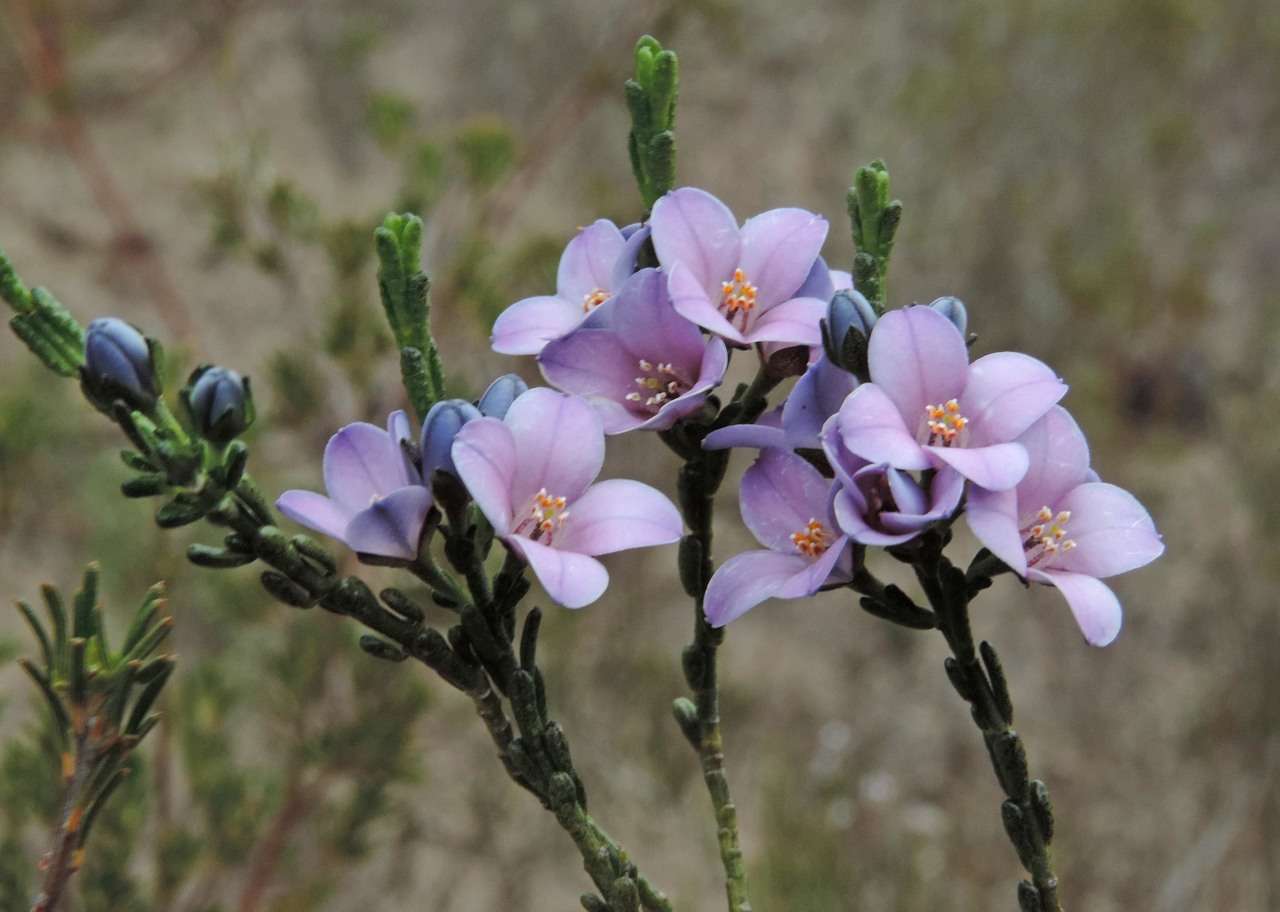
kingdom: Plantae
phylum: Tracheophyta
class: Magnoliopsida
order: Sapindales
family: Rutaceae
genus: Cyanothamnus
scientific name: Cyanothamnus coerulescens
